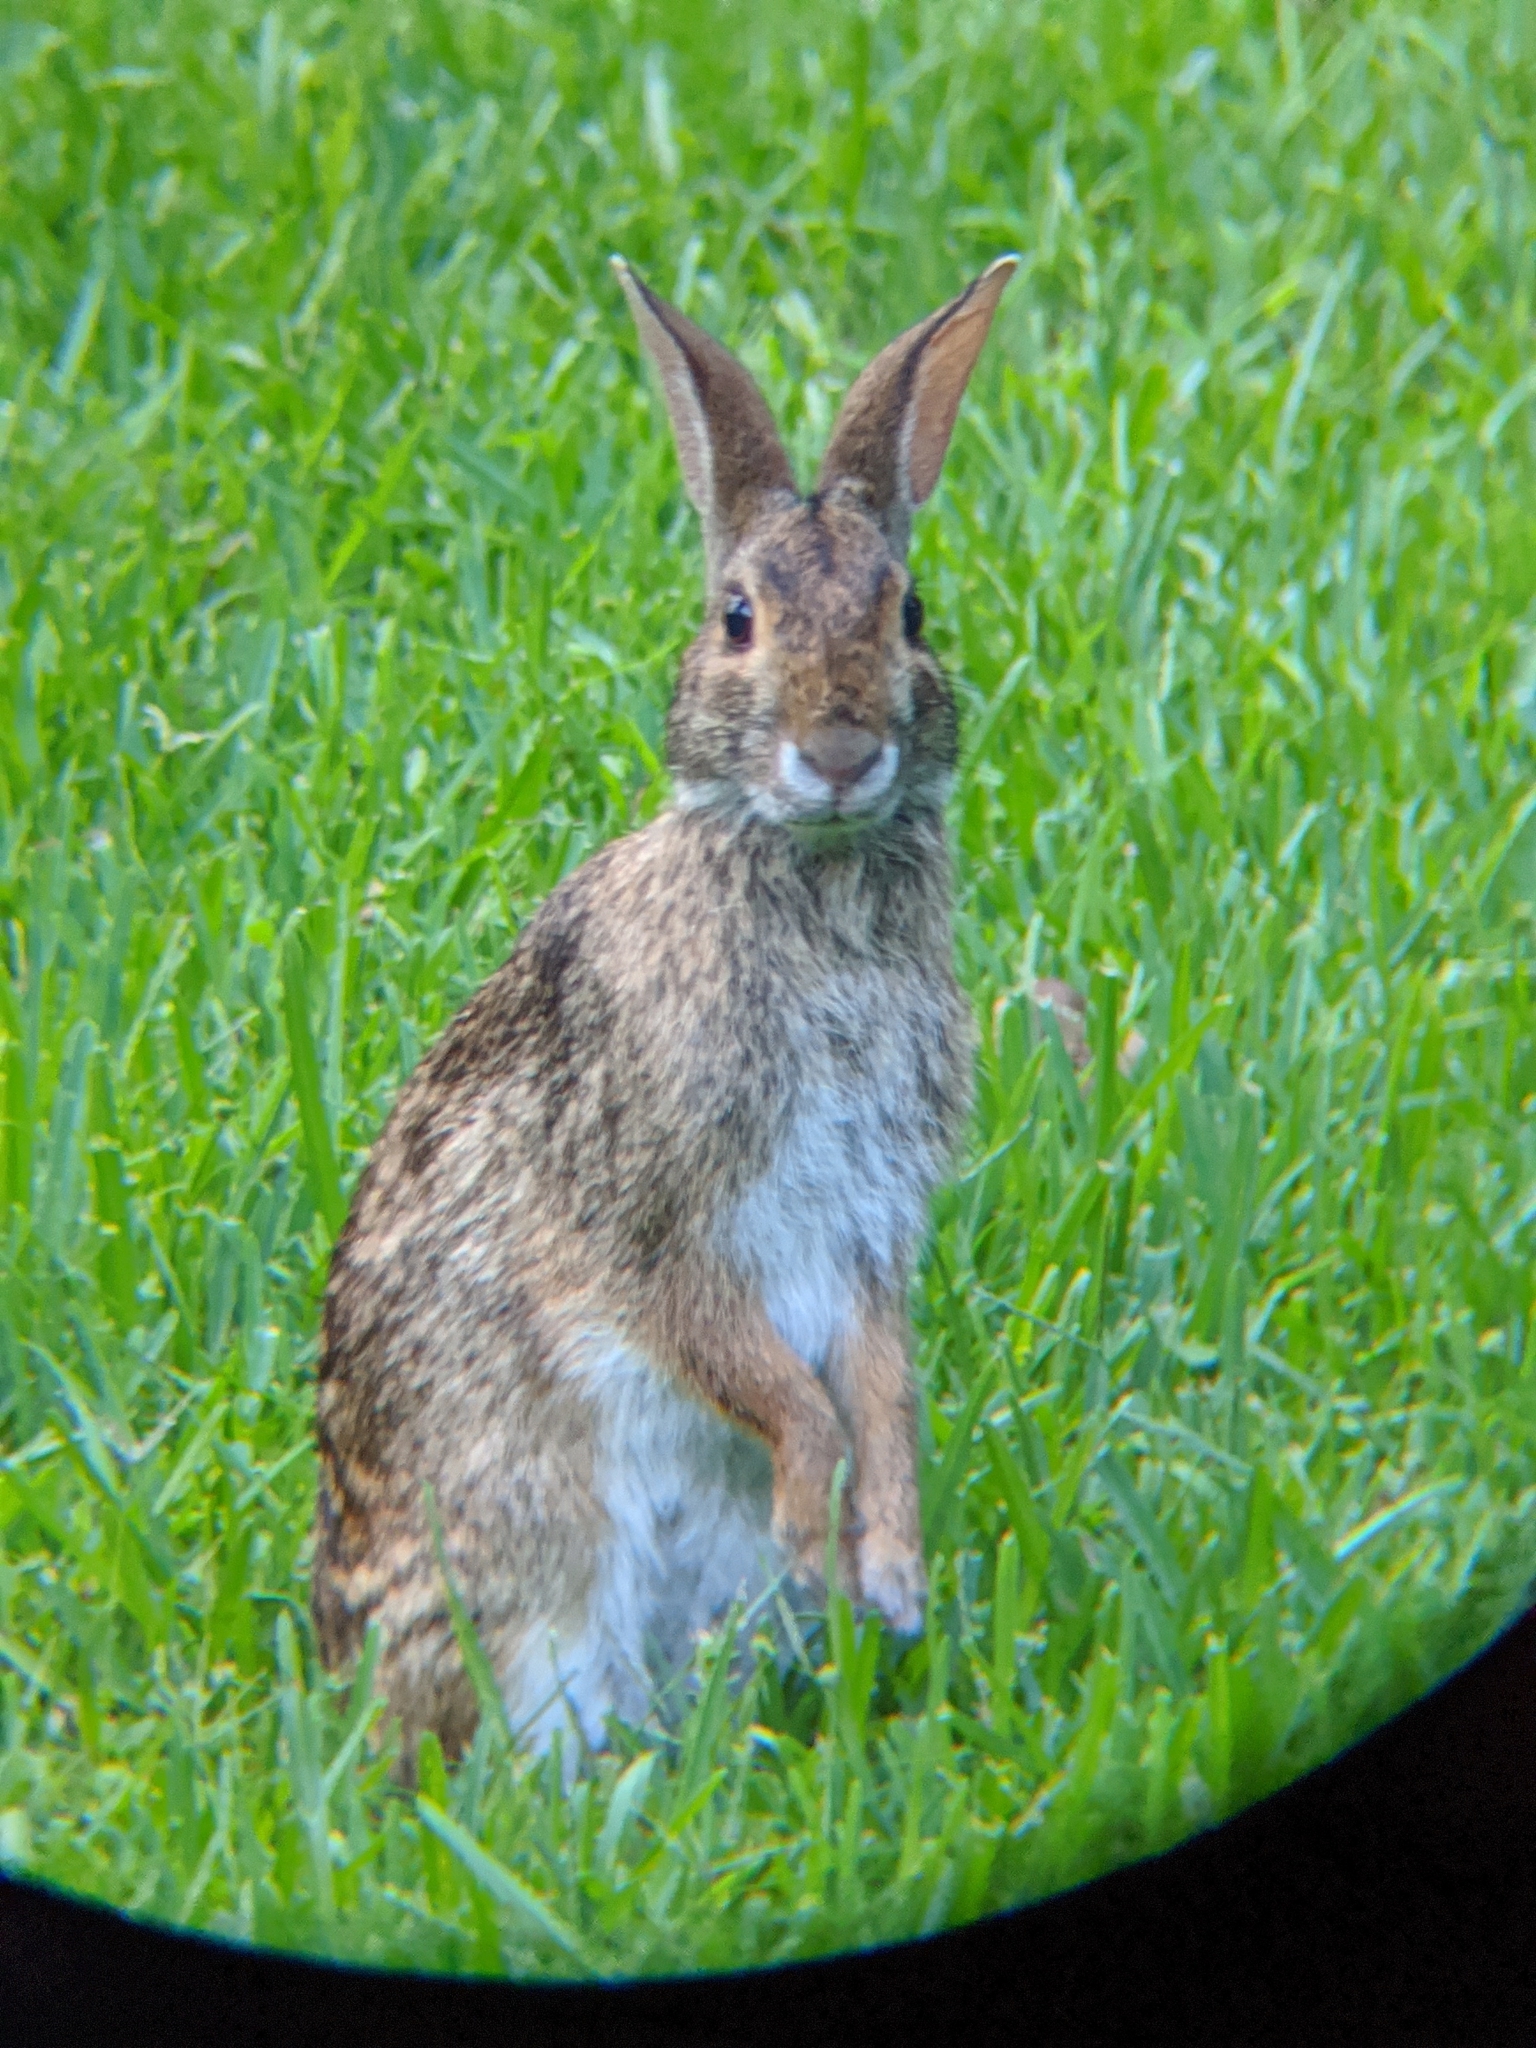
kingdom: Animalia
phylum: Chordata
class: Mammalia
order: Lagomorpha
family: Leporidae
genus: Sylvilagus
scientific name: Sylvilagus aquaticus
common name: Swamp rabbit
